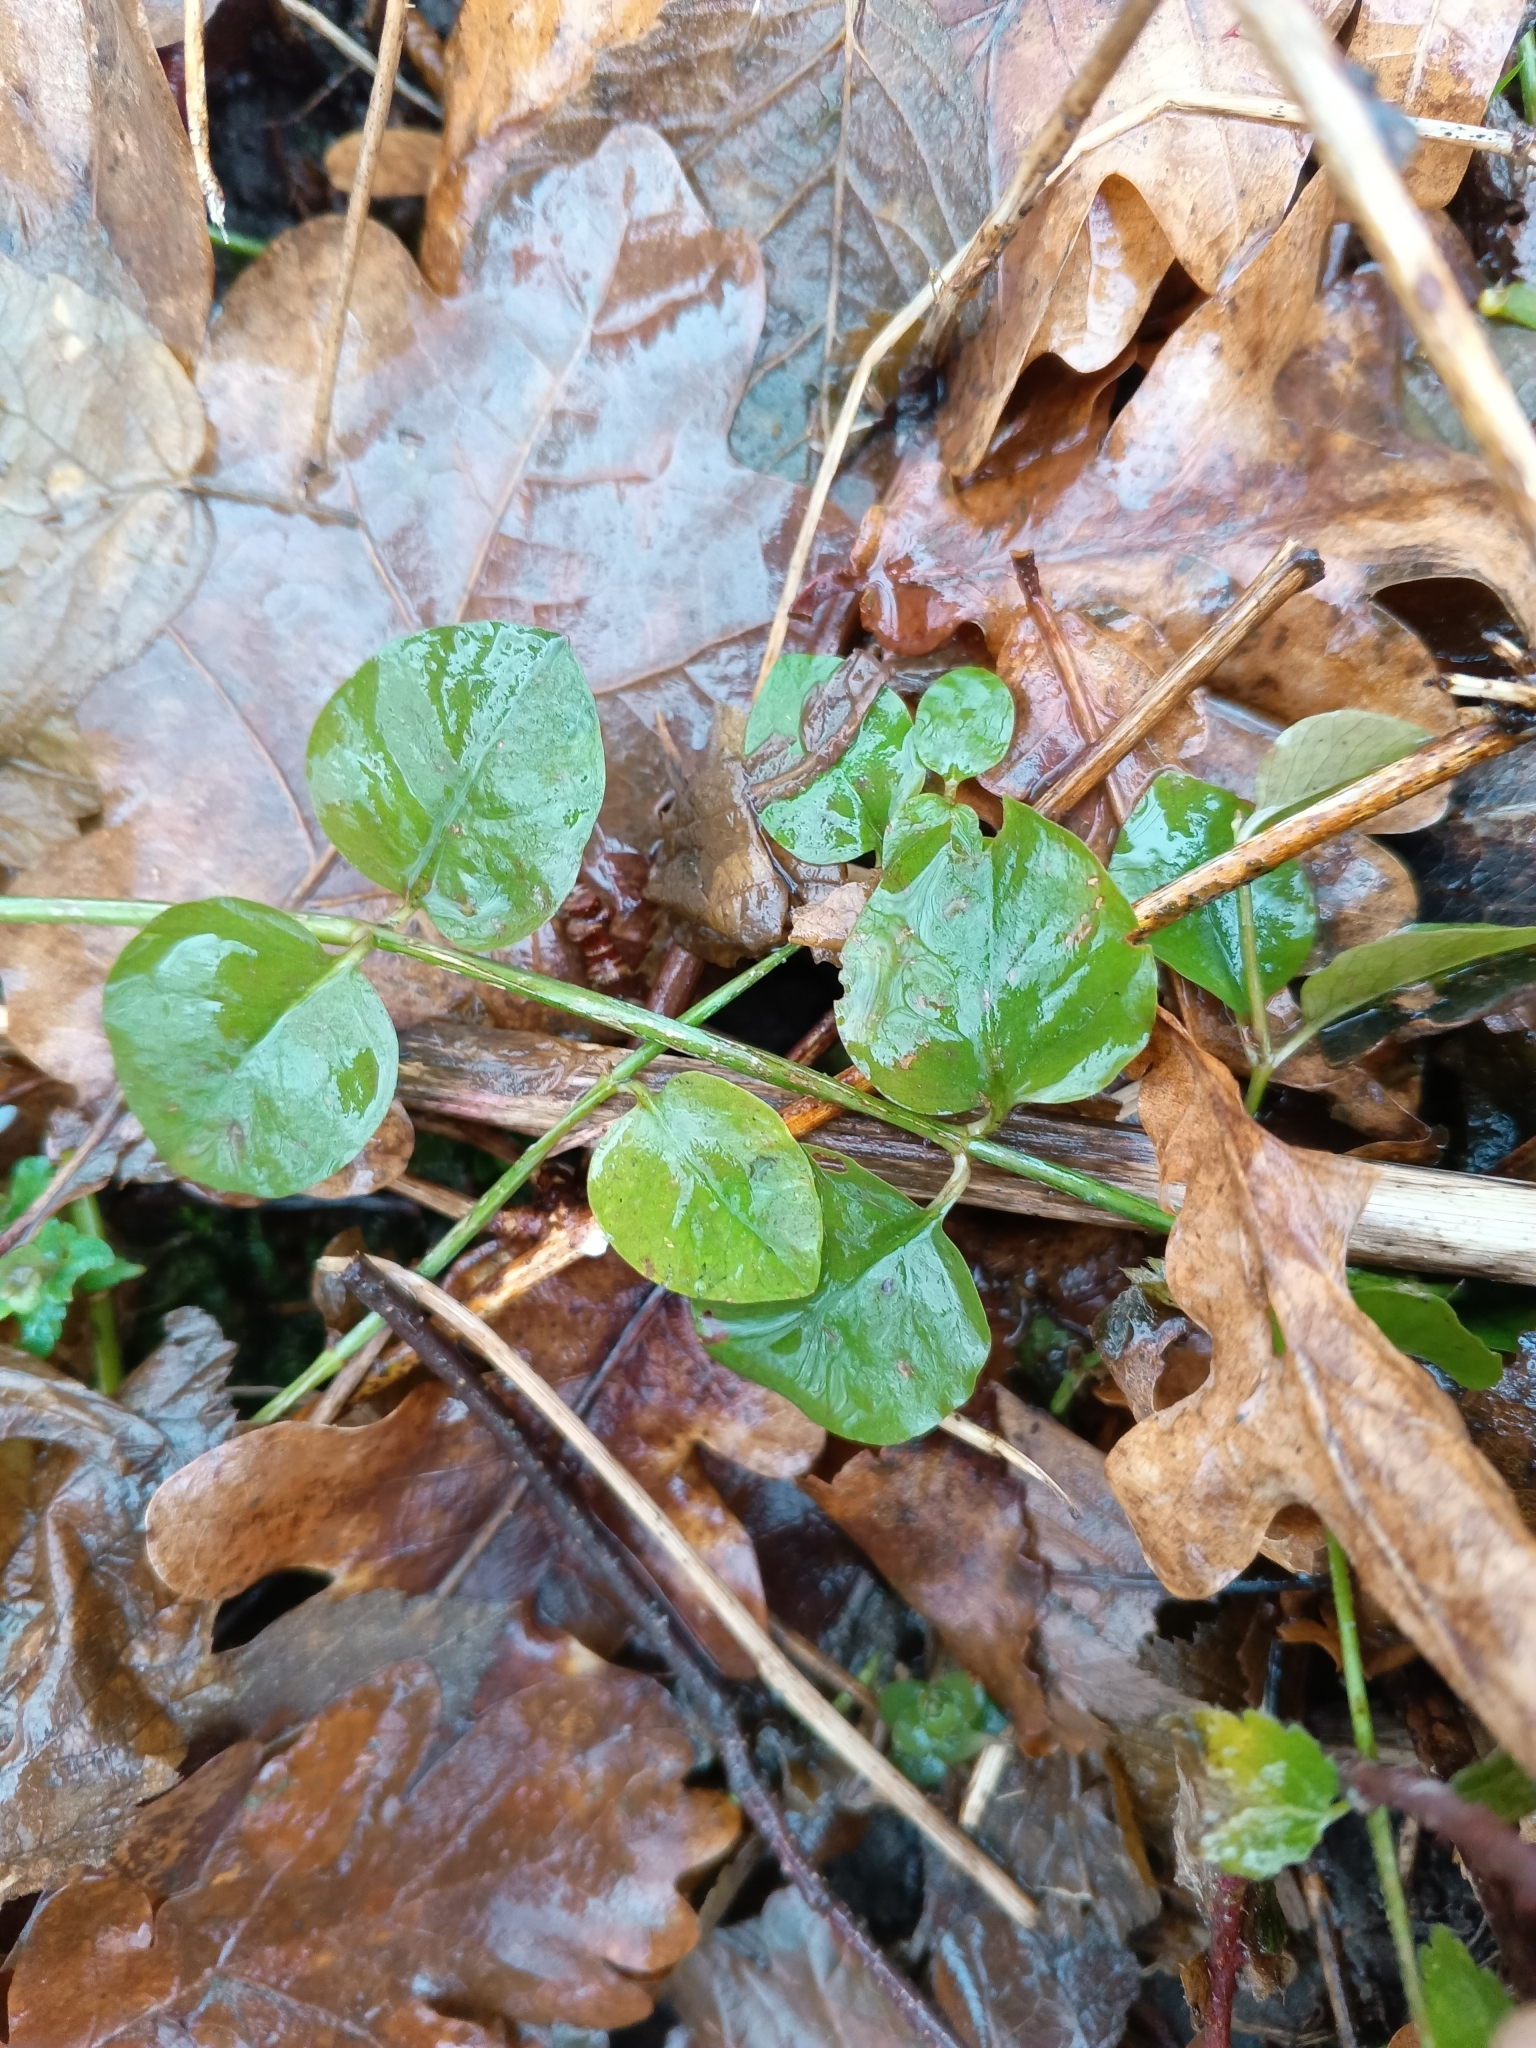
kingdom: Plantae
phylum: Tracheophyta
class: Magnoliopsida
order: Ericales
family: Primulaceae
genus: Lysimachia
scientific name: Lysimachia nummularia
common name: Moneywort
